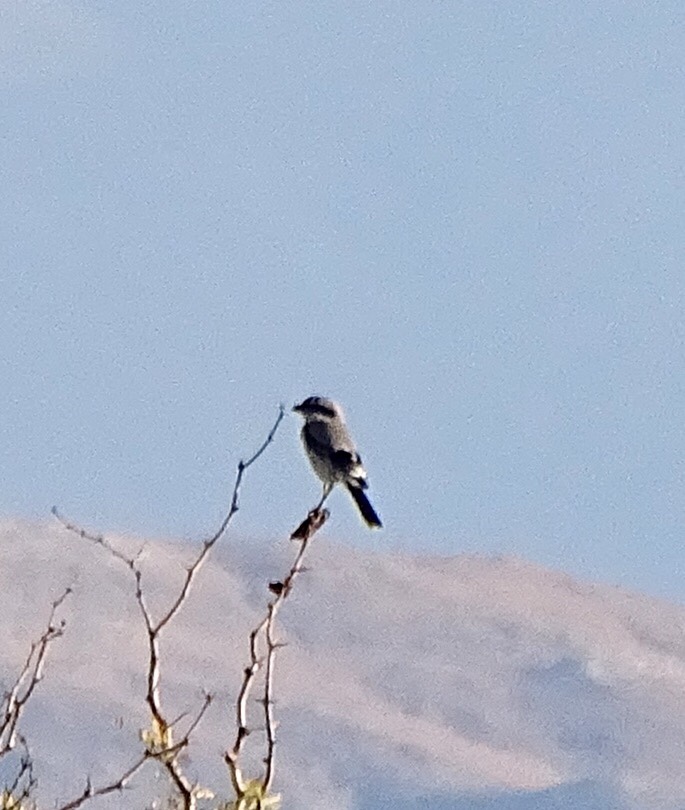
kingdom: Animalia
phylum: Chordata
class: Aves
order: Passeriformes
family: Laniidae
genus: Lanius
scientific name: Lanius ludovicianus
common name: Loggerhead shrike
